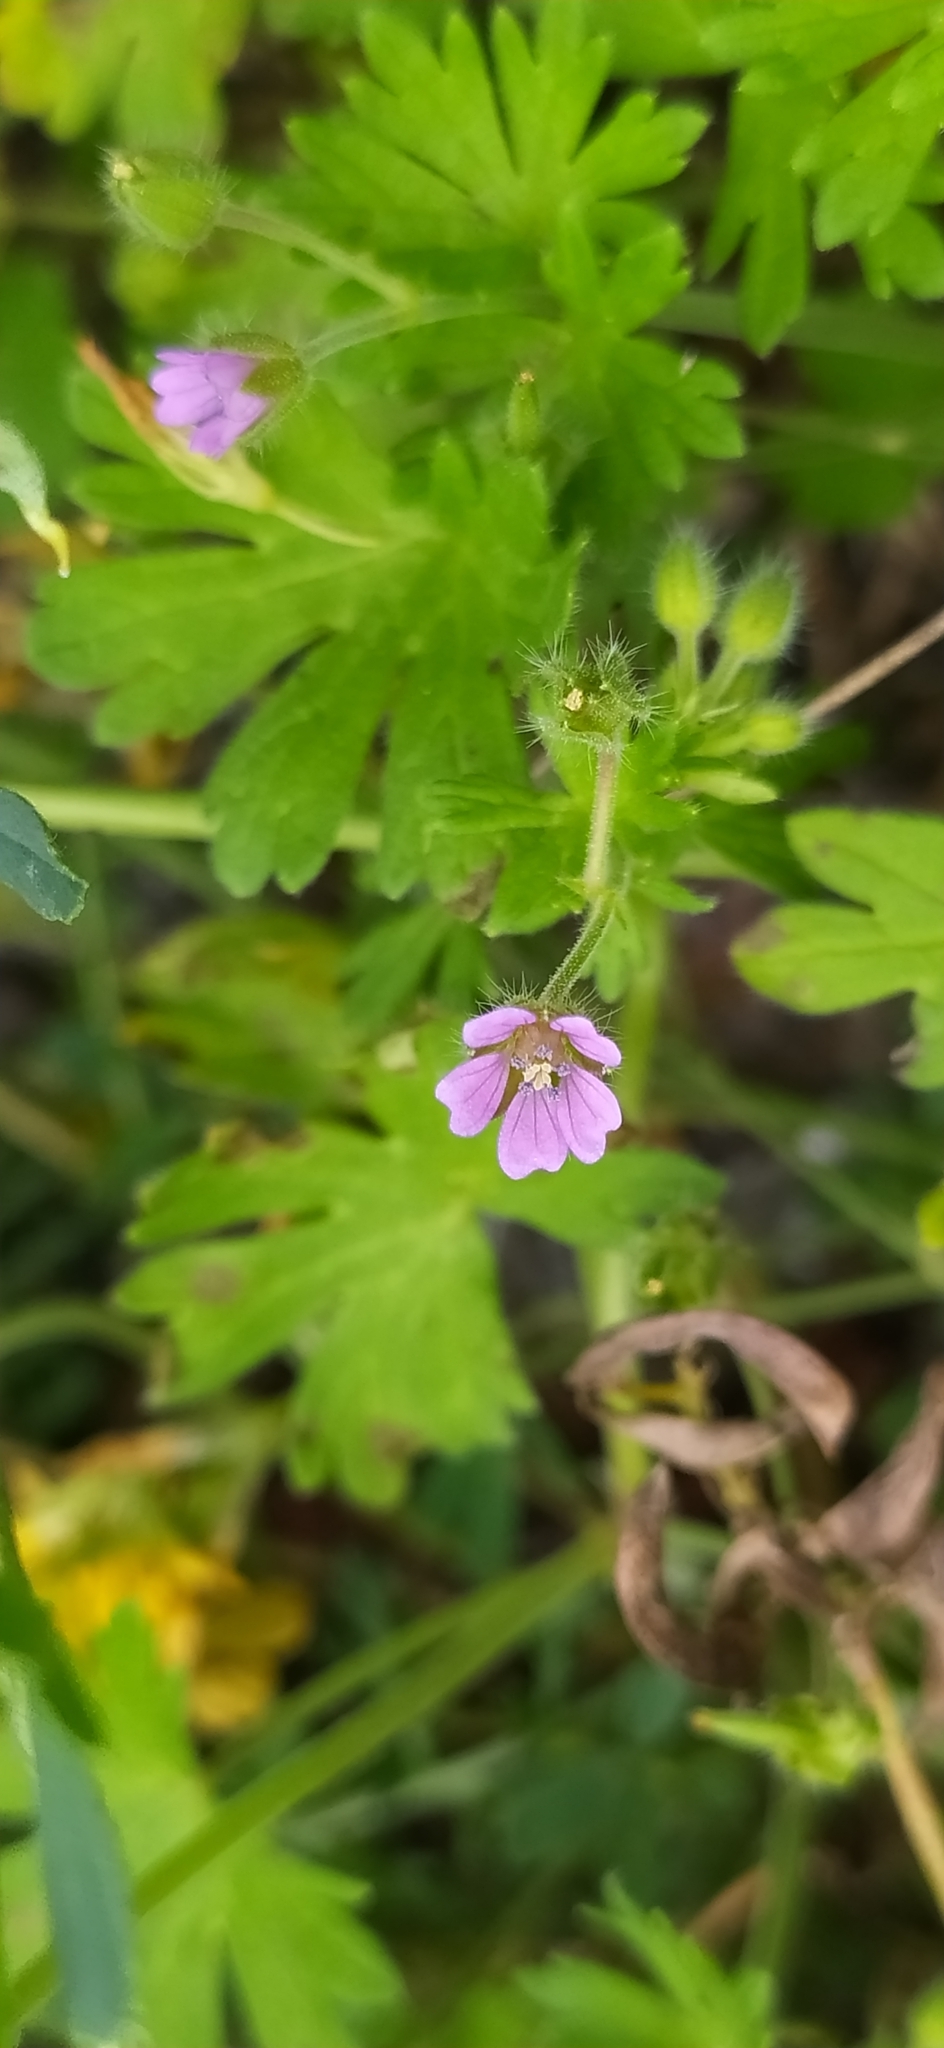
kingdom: Plantae
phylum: Tracheophyta
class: Magnoliopsida
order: Geraniales
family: Geraniaceae
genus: Geranium
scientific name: Geranium pusillum
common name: Small geranium
